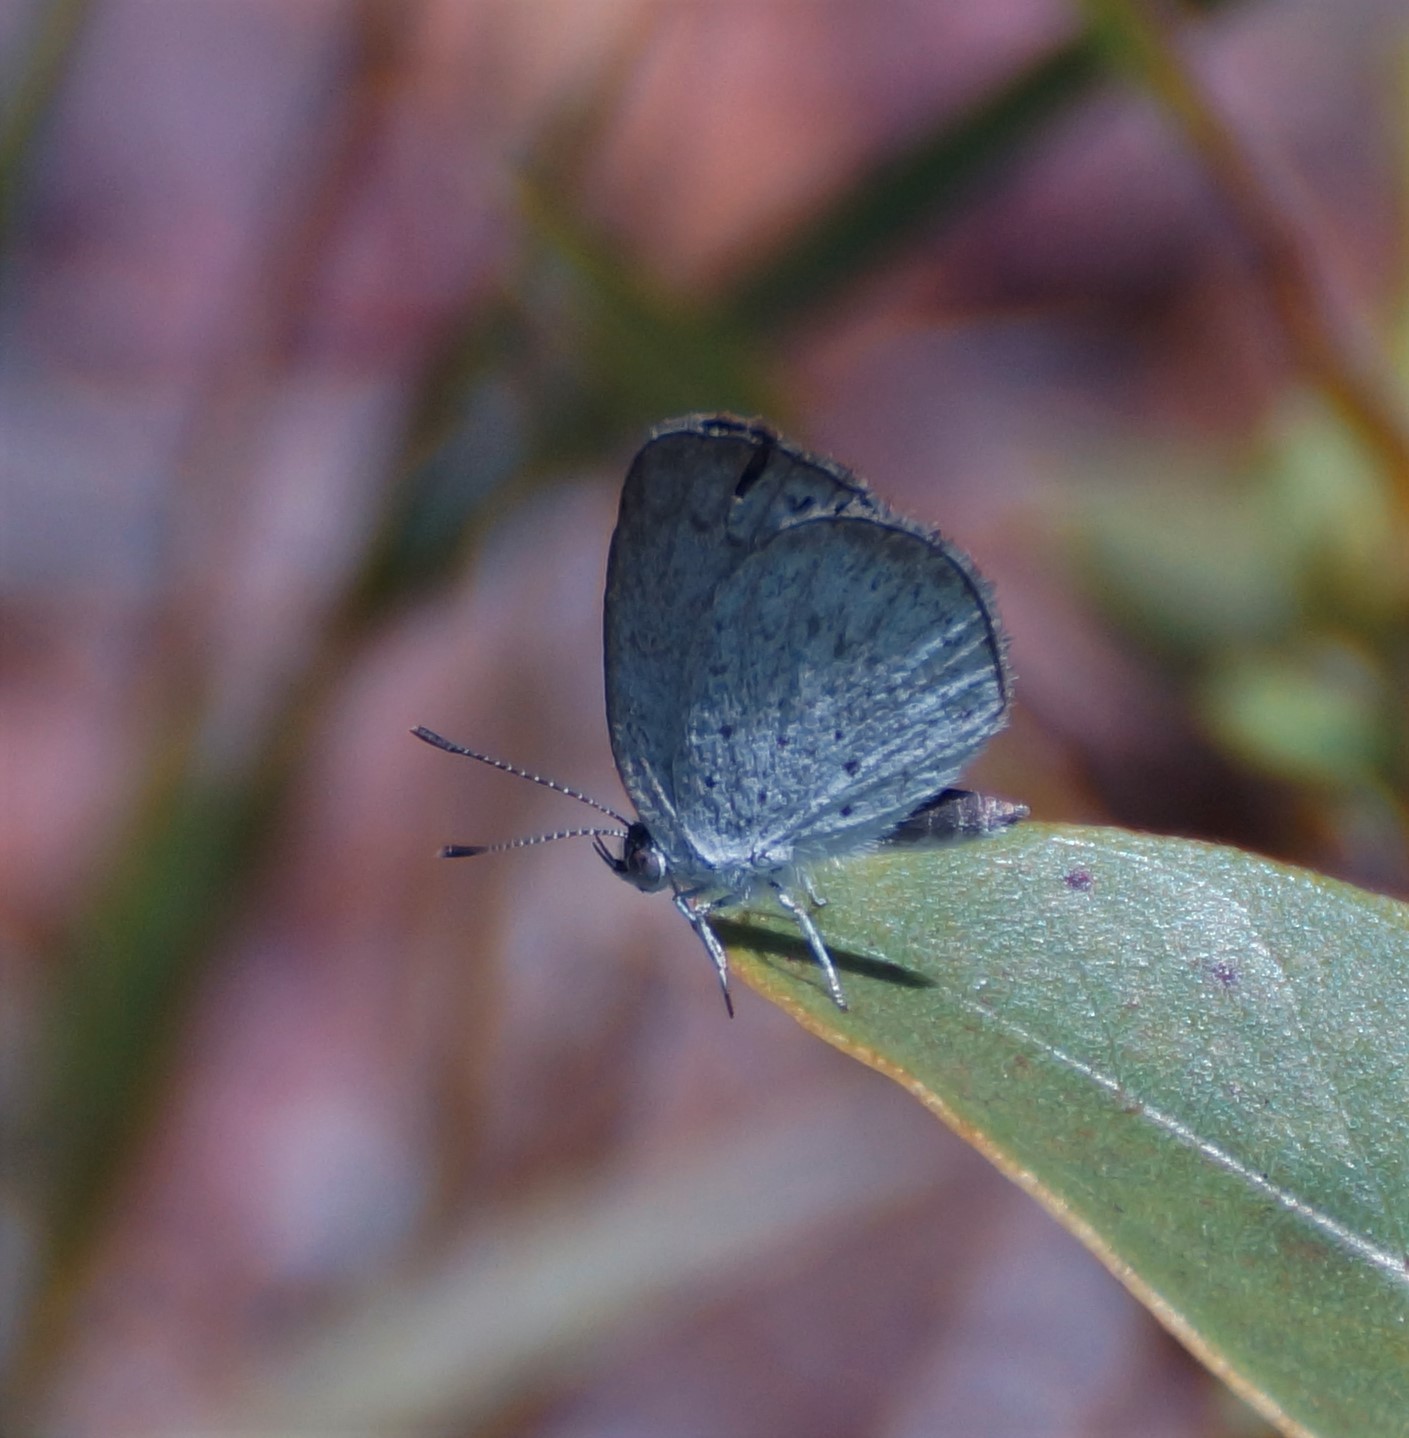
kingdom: Animalia
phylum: Arthropoda
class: Insecta
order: Lepidoptera
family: Lycaenidae
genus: Candalides
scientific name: Candalides
